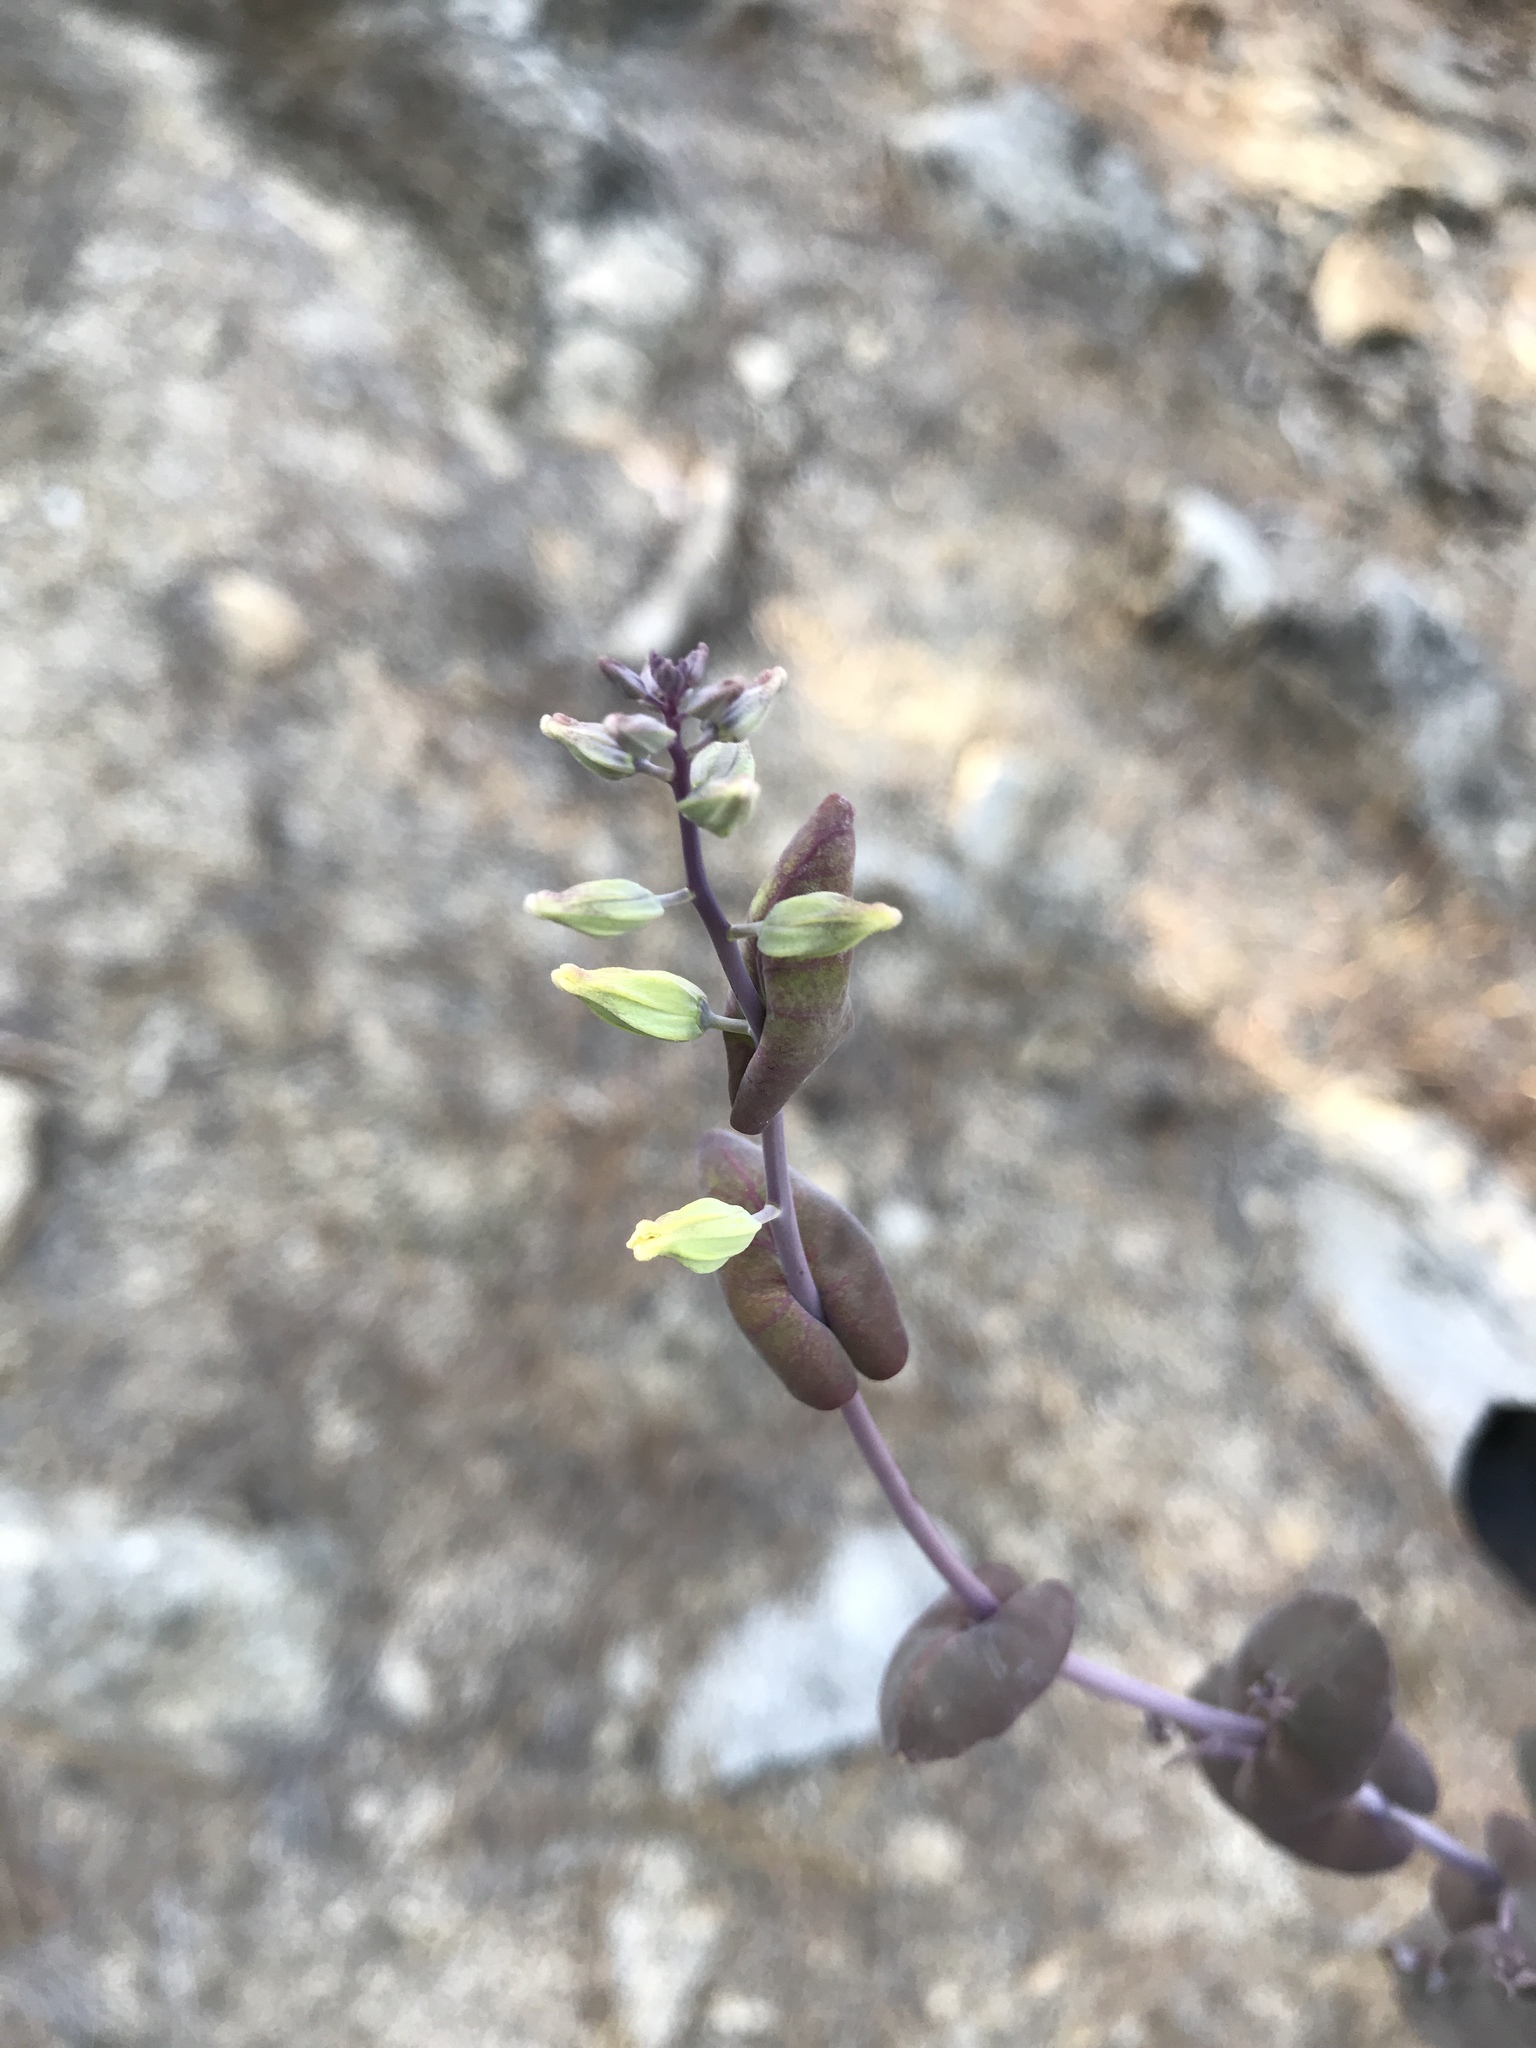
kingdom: Plantae
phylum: Tracheophyta
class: Magnoliopsida
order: Brassicales
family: Brassicaceae
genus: Streptanthus
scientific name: Streptanthus tortuosus
